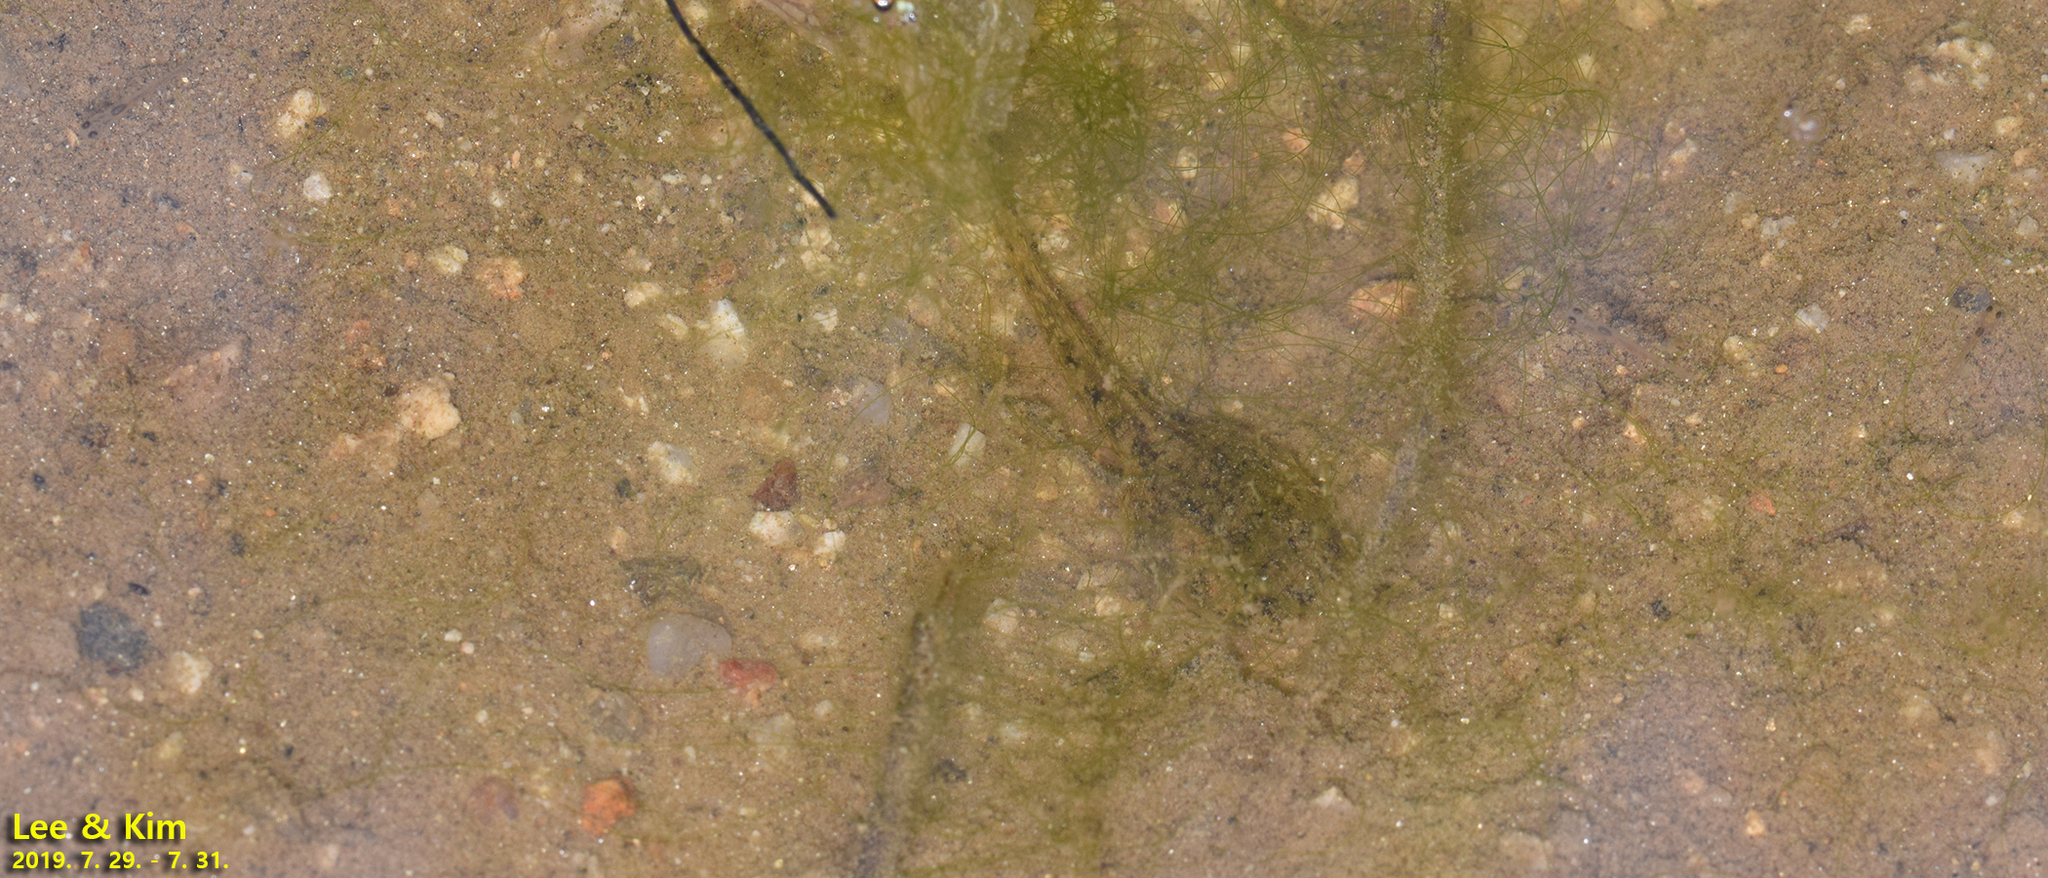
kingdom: Animalia
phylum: Chordata
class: Amphibia
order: Anura
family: Ranidae
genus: Glandirana
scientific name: Glandirana emeljanovi
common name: Northeast china rough-skinned frog
